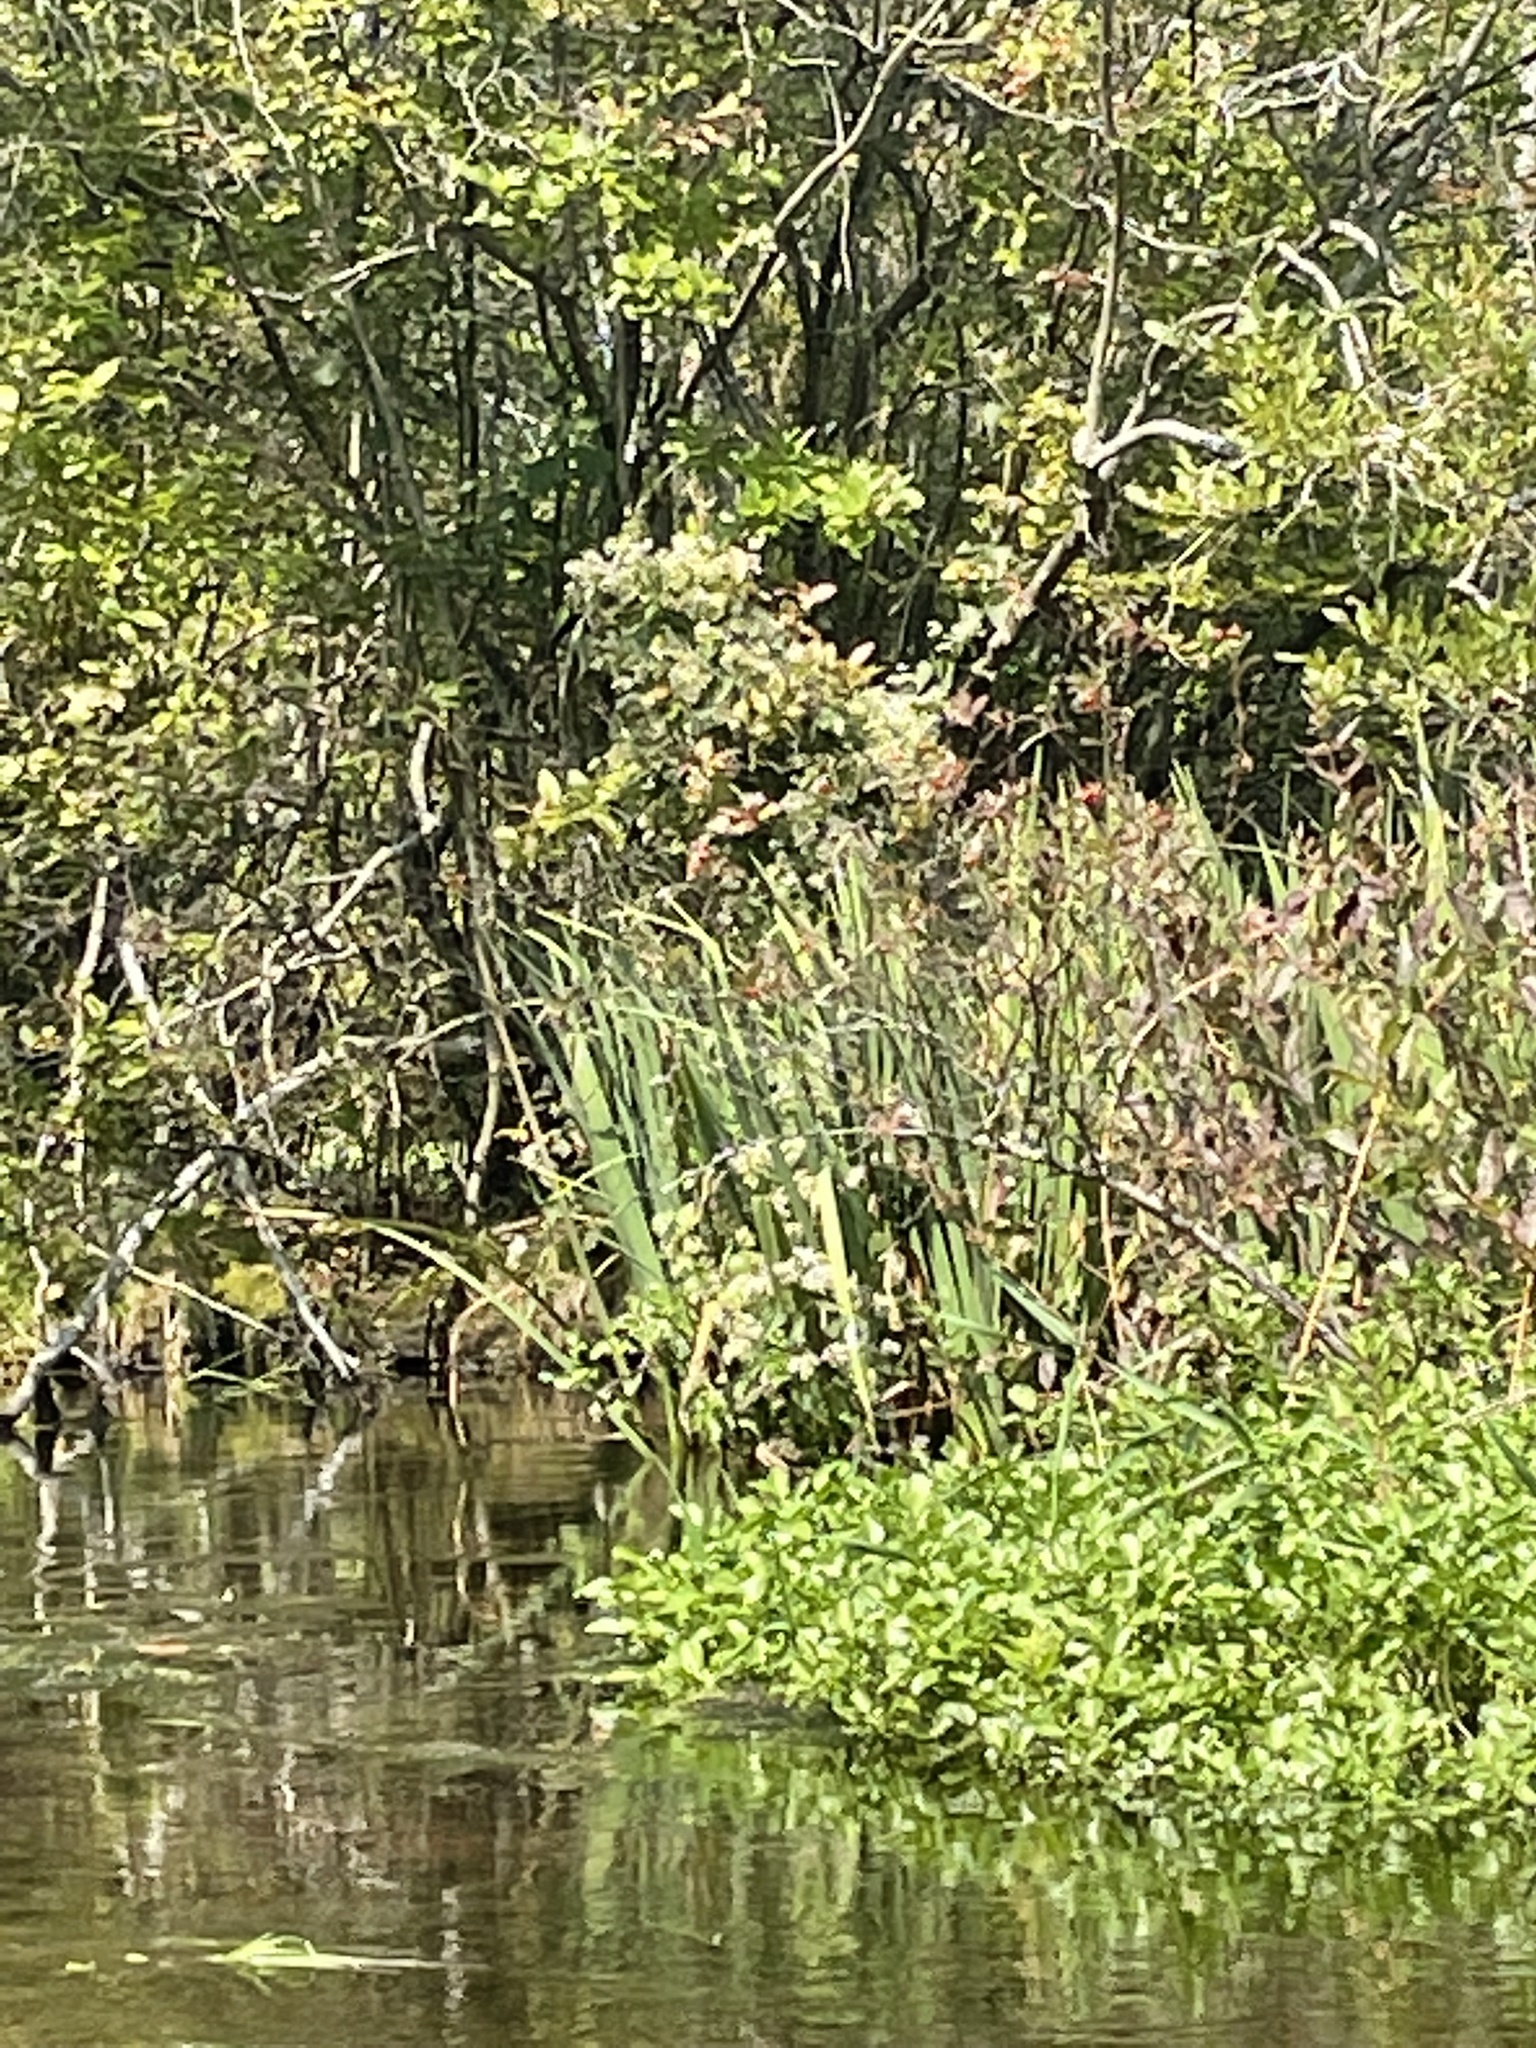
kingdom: Plantae
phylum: Tracheophyta
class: Liliopsida
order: Asparagales
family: Iridaceae
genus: Iris
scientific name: Iris pseudacorus
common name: Yellow flag
